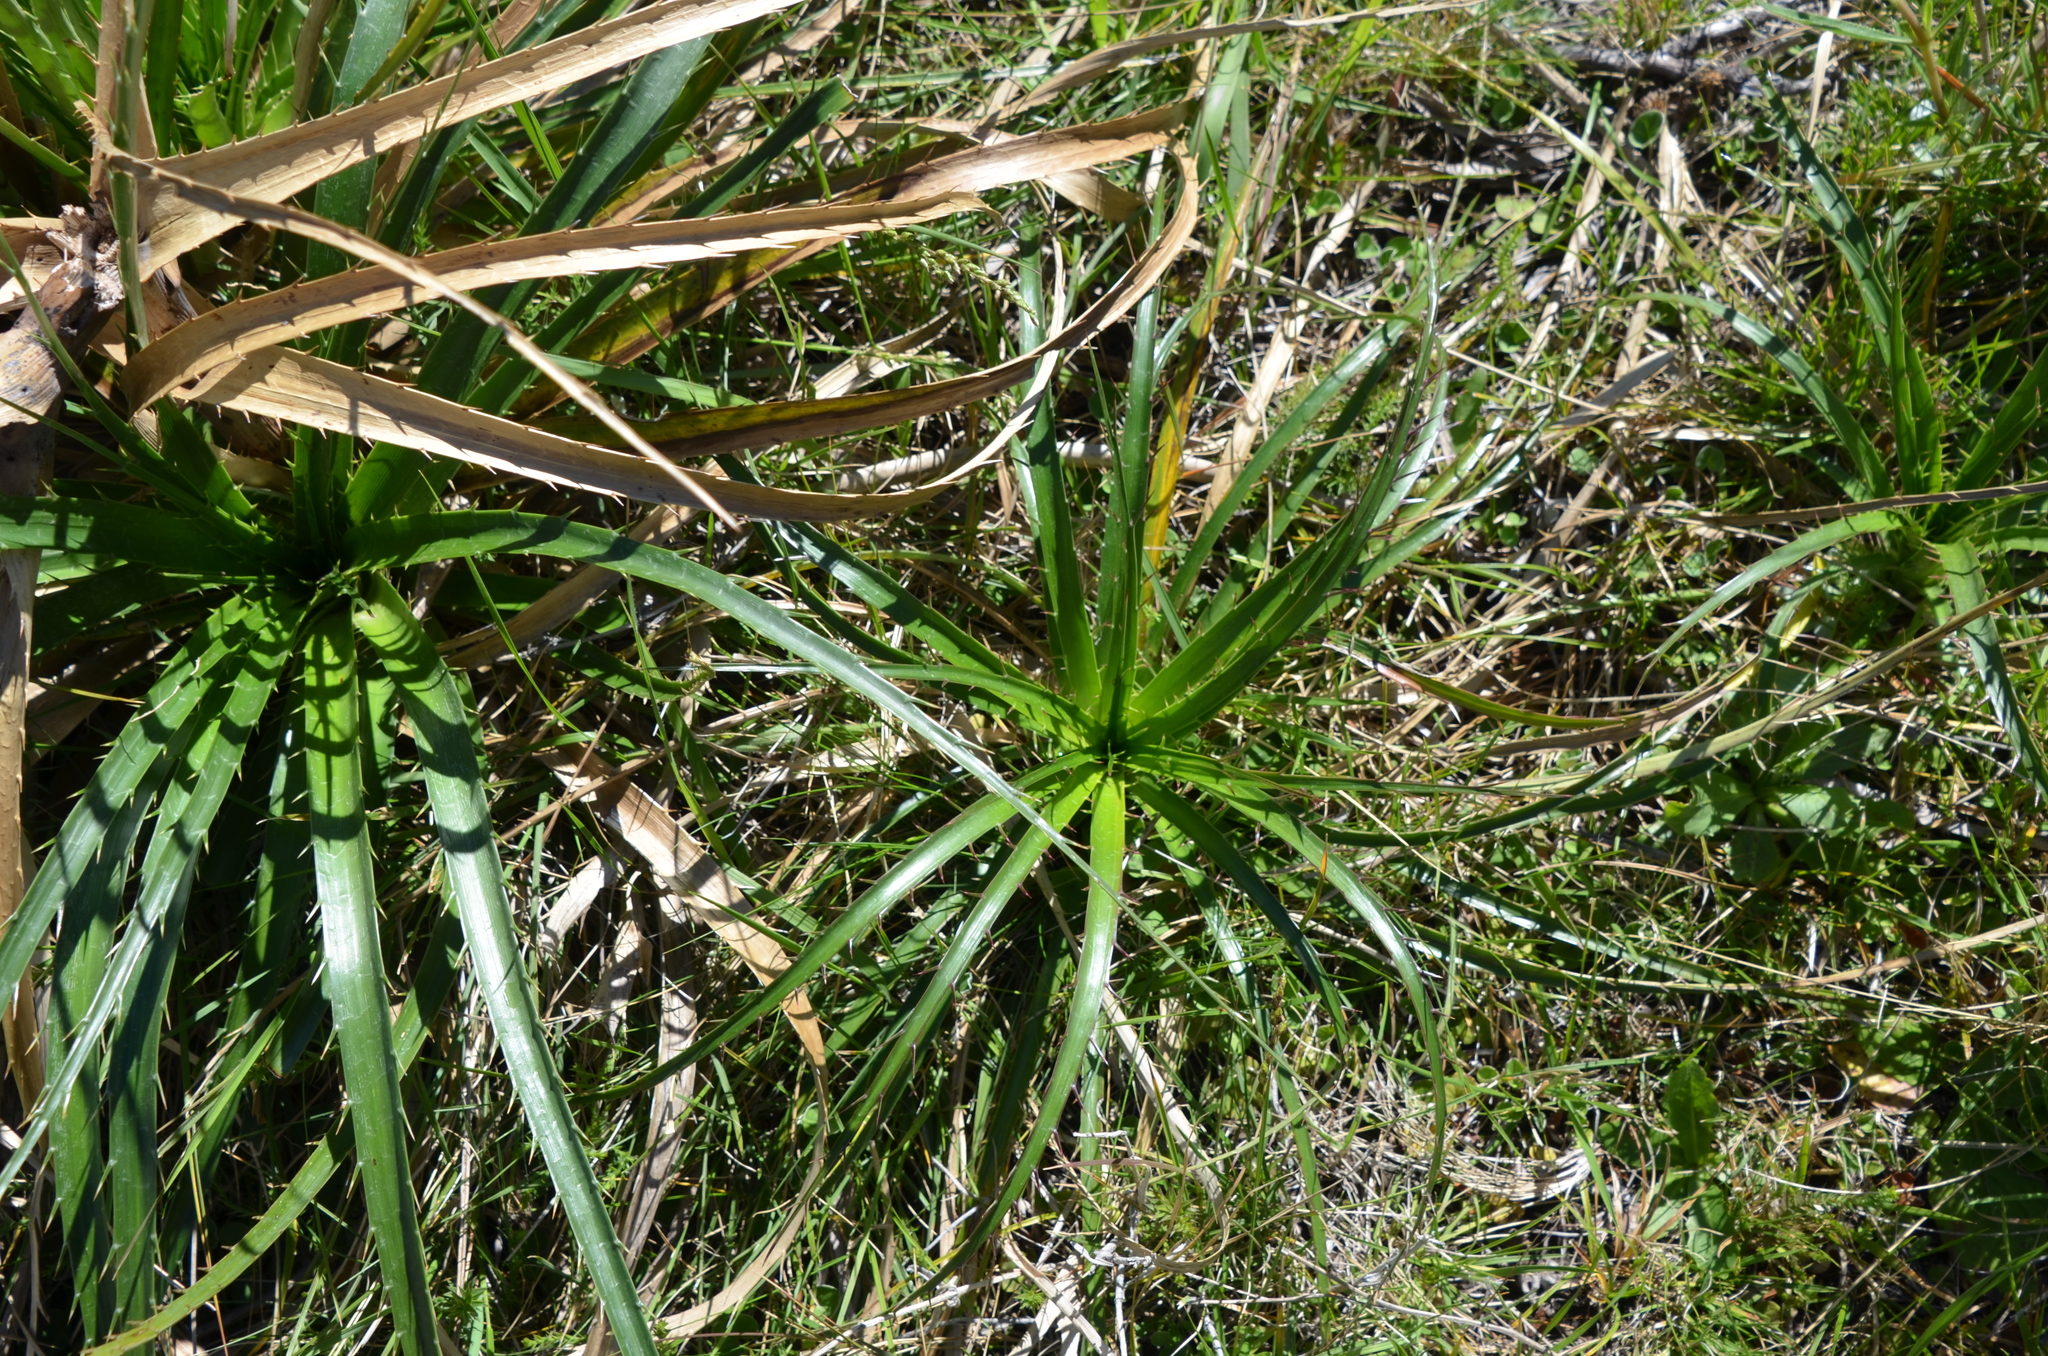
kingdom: Plantae
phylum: Tracheophyta
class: Magnoliopsida
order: Apiales
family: Apiaceae
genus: Eryngium
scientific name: Eryngium humboldtii
